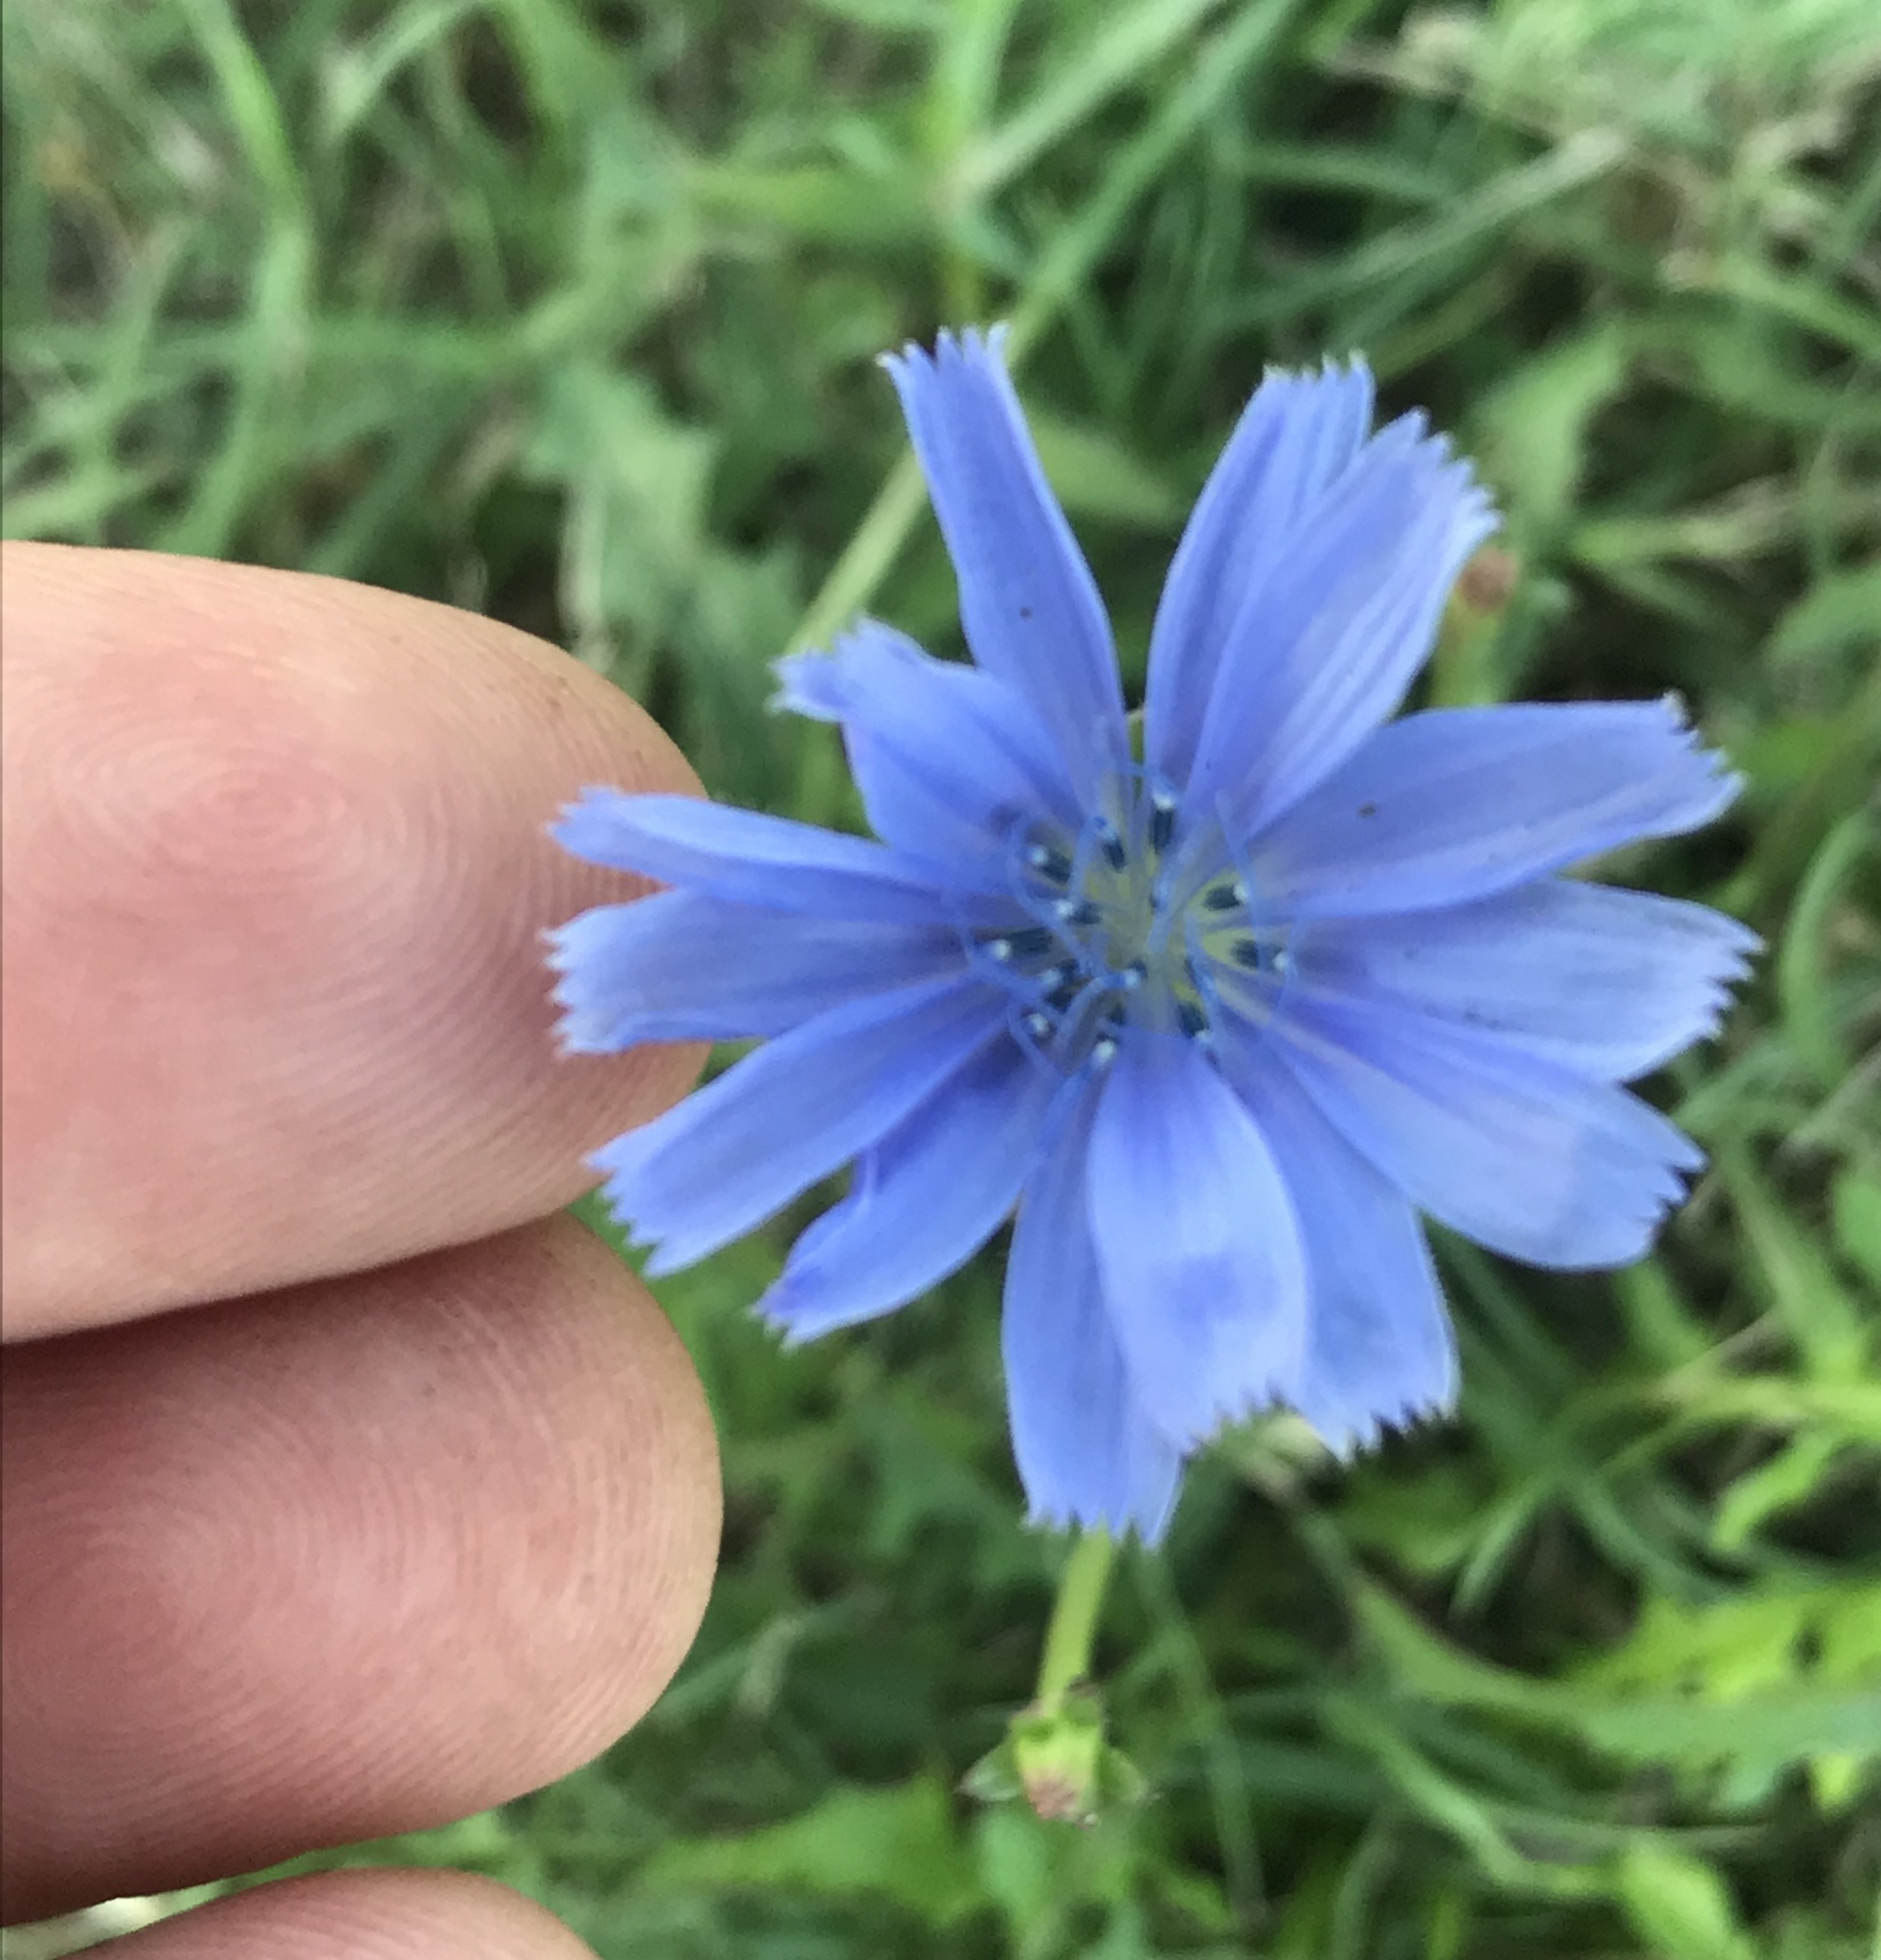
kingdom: Plantae
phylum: Tracheophyta
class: Magnoliopsida
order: Asterales
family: Asteraceae
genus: Cichorium
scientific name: Cichorium intybus
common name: Chicory
